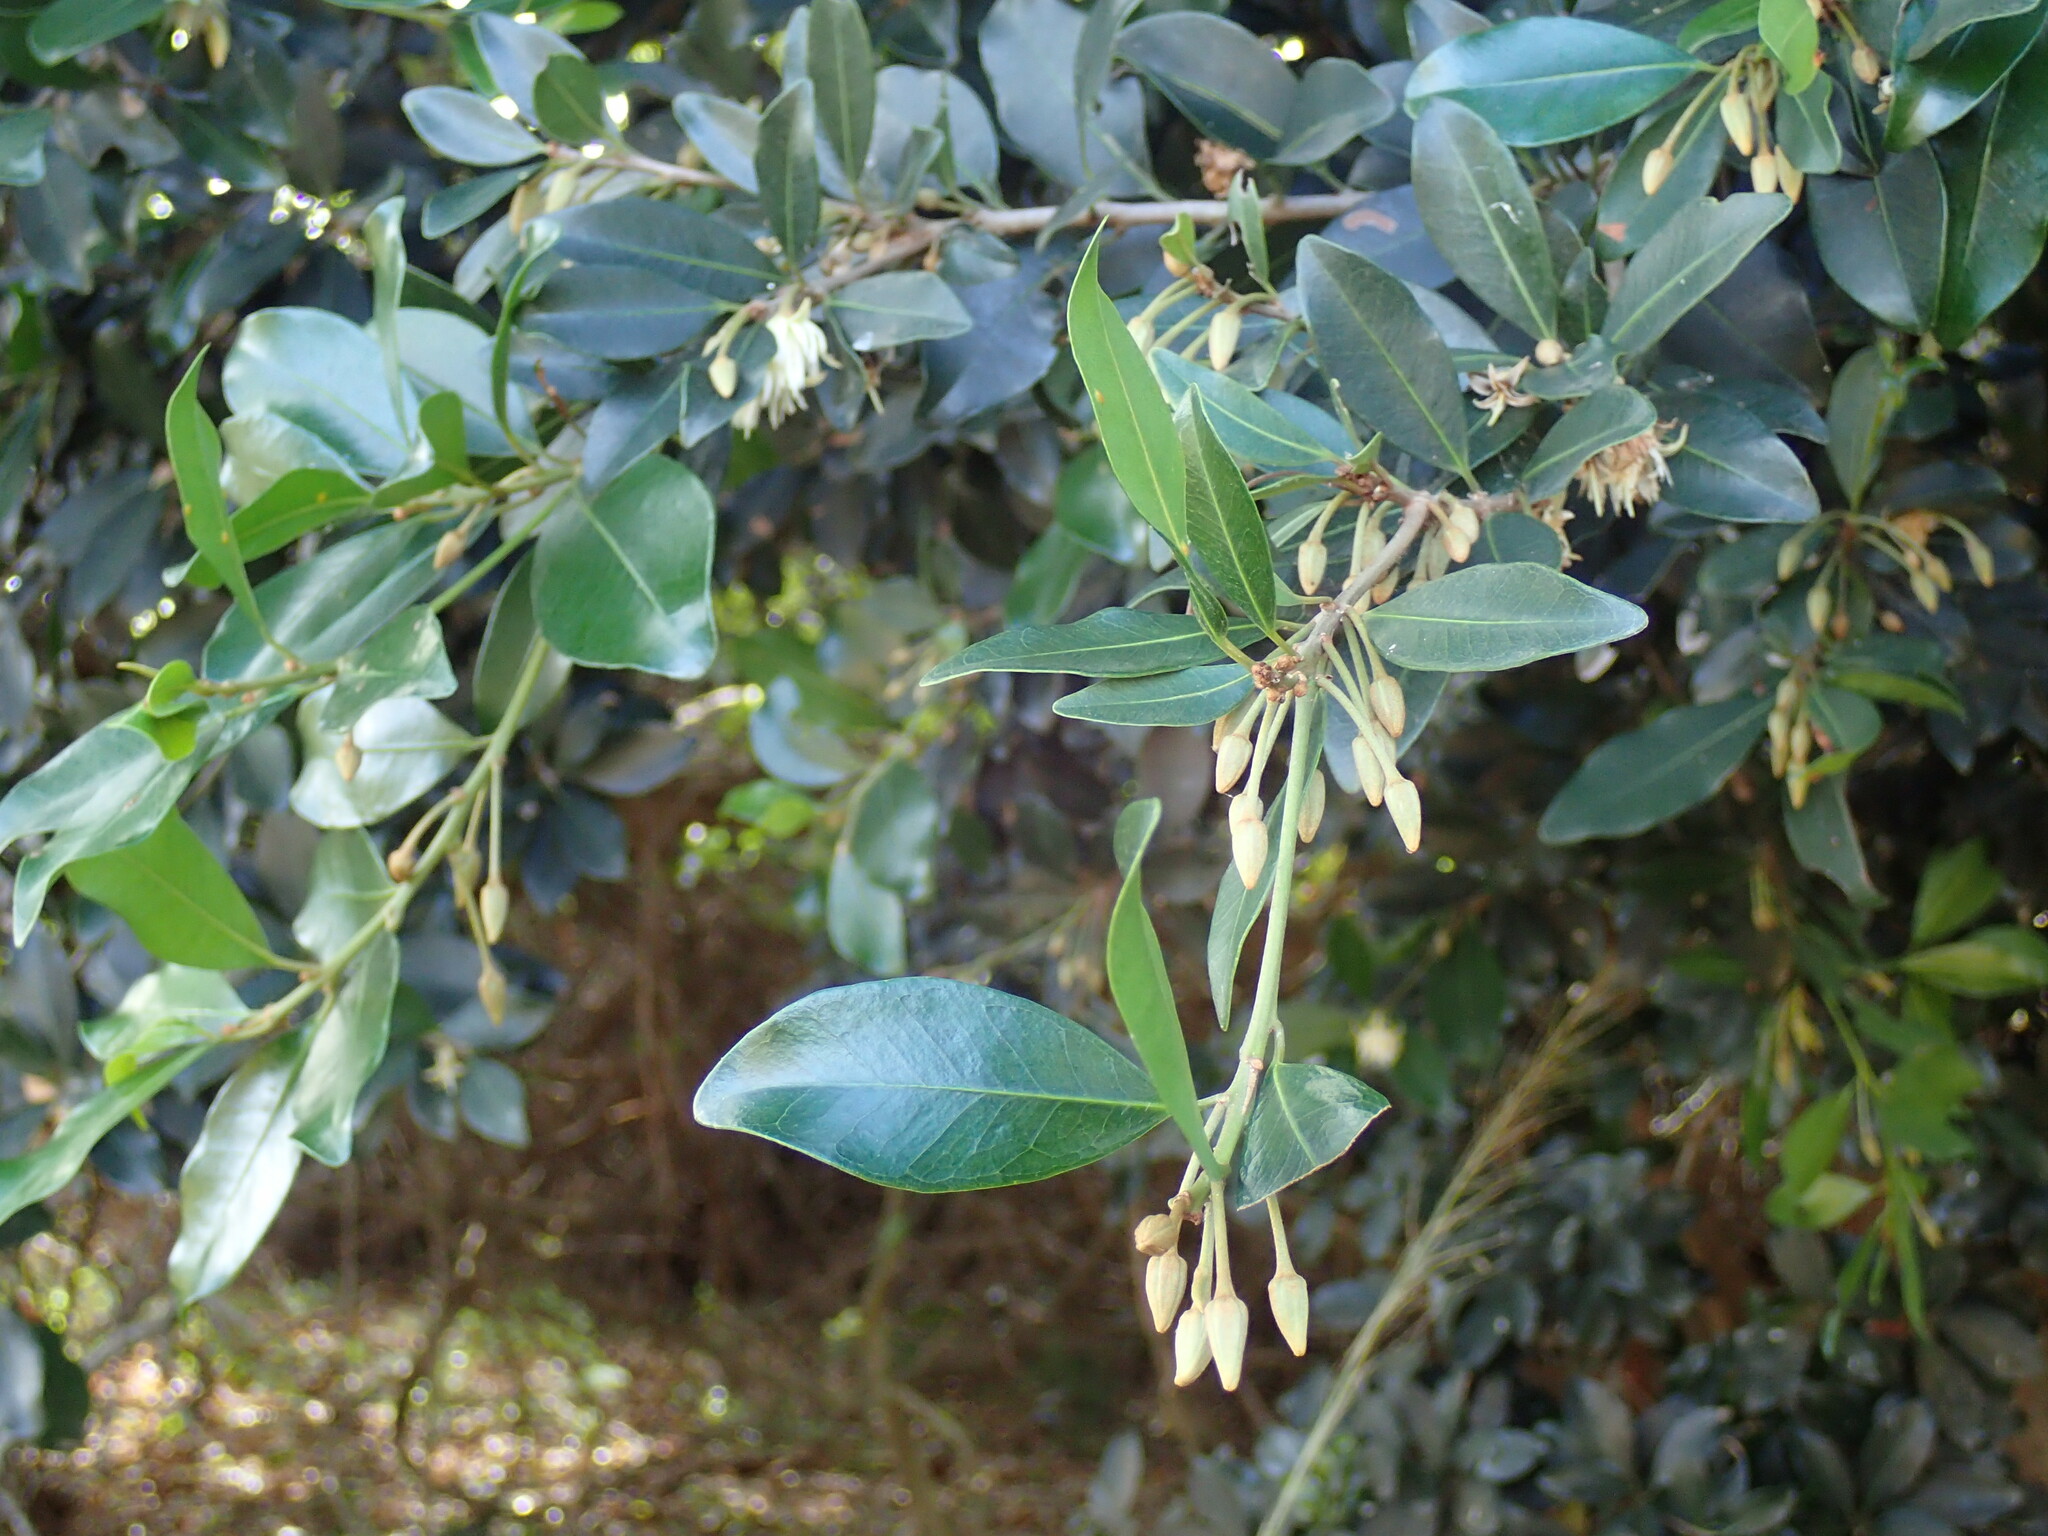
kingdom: Plantae
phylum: Tracheophyta
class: Magnoliopsida
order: Ericales
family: Sapotaceae
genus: Mimusops
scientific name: Mimusops obovata
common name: Red milkwood
